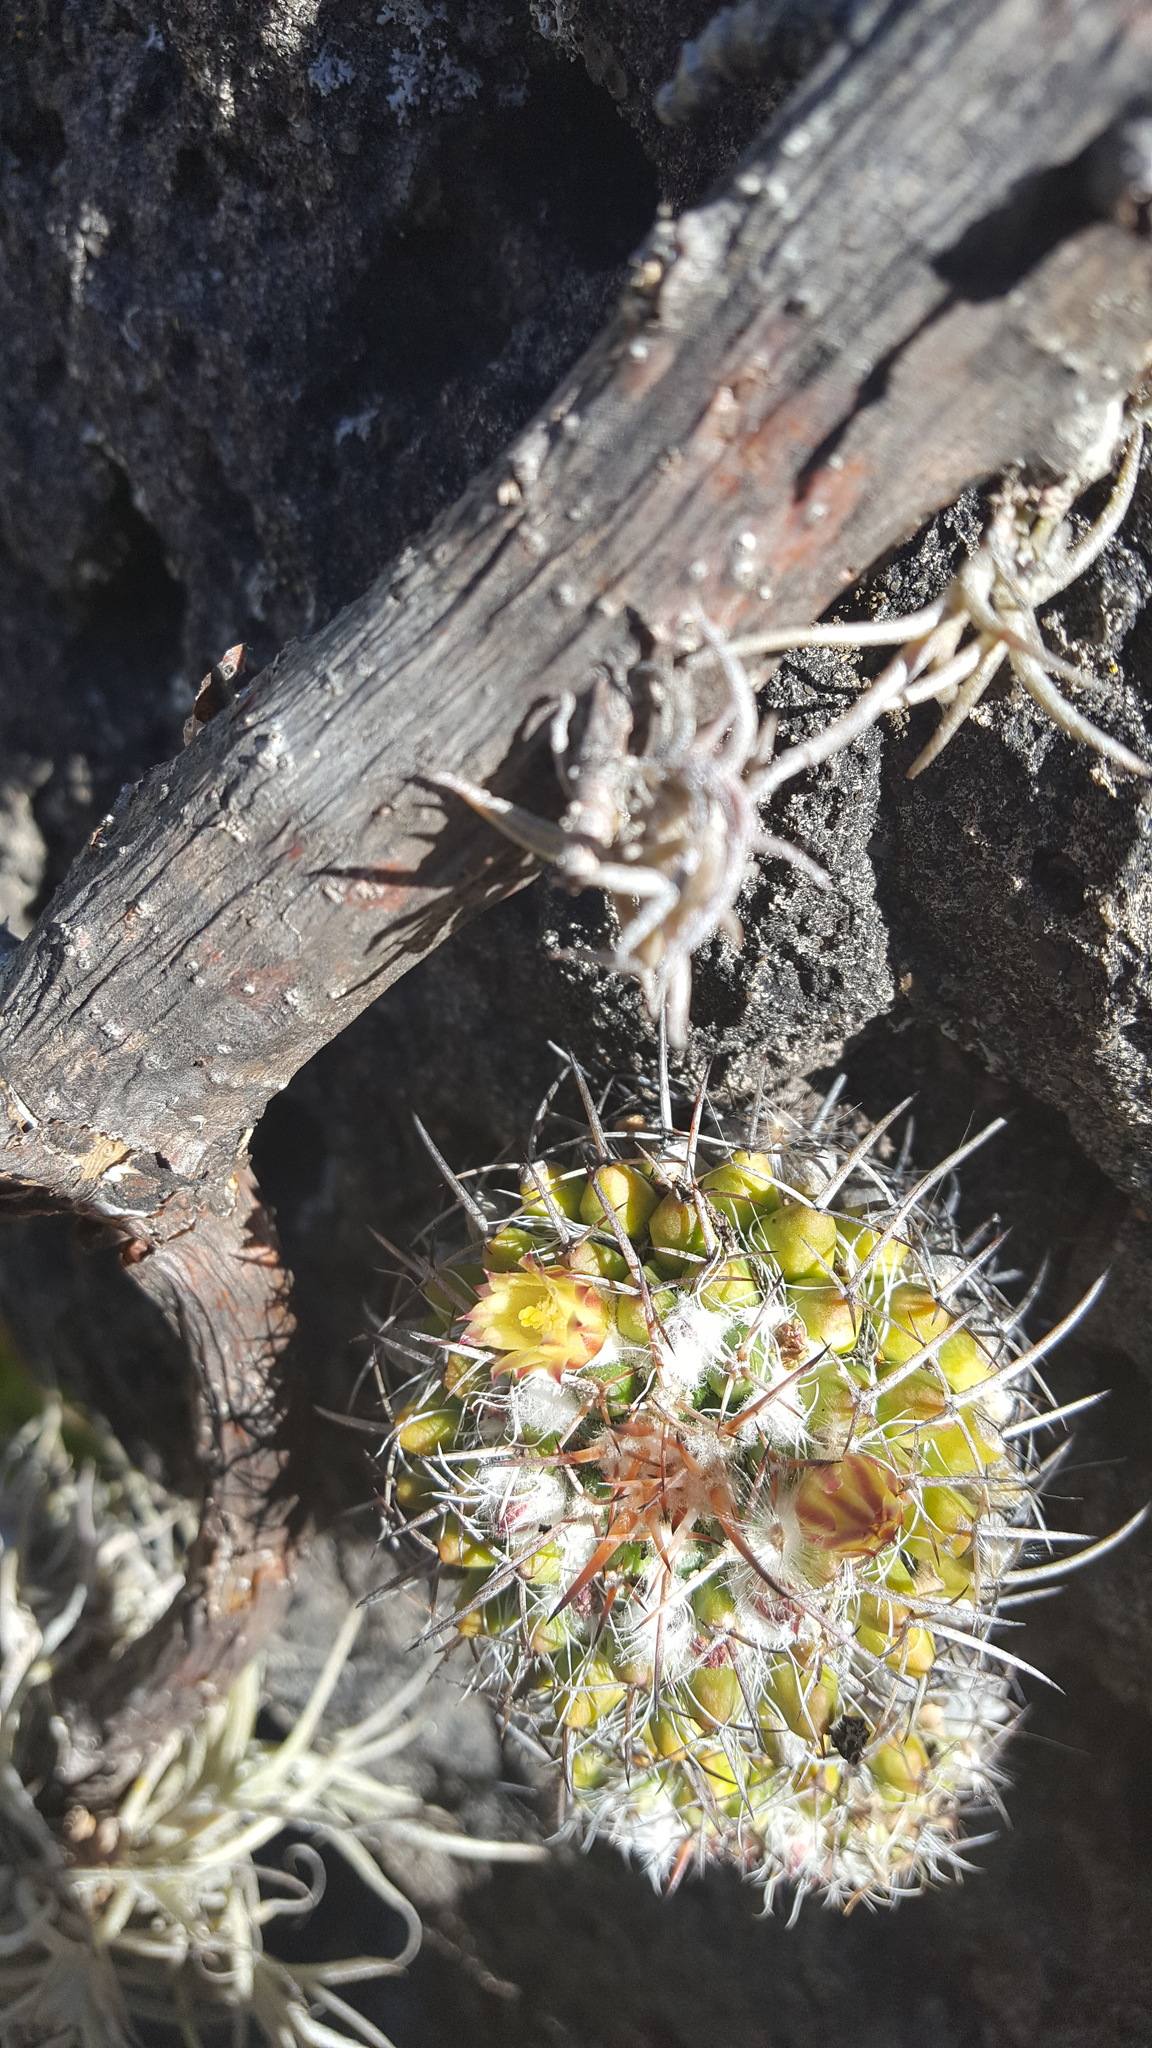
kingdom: Plantae
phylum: Tracheophyta
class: Magnoliopsida
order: Caryophyllales
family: Cactaceae
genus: Mammillaria
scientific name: Mammillaria karwinskiana
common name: Royal cross
